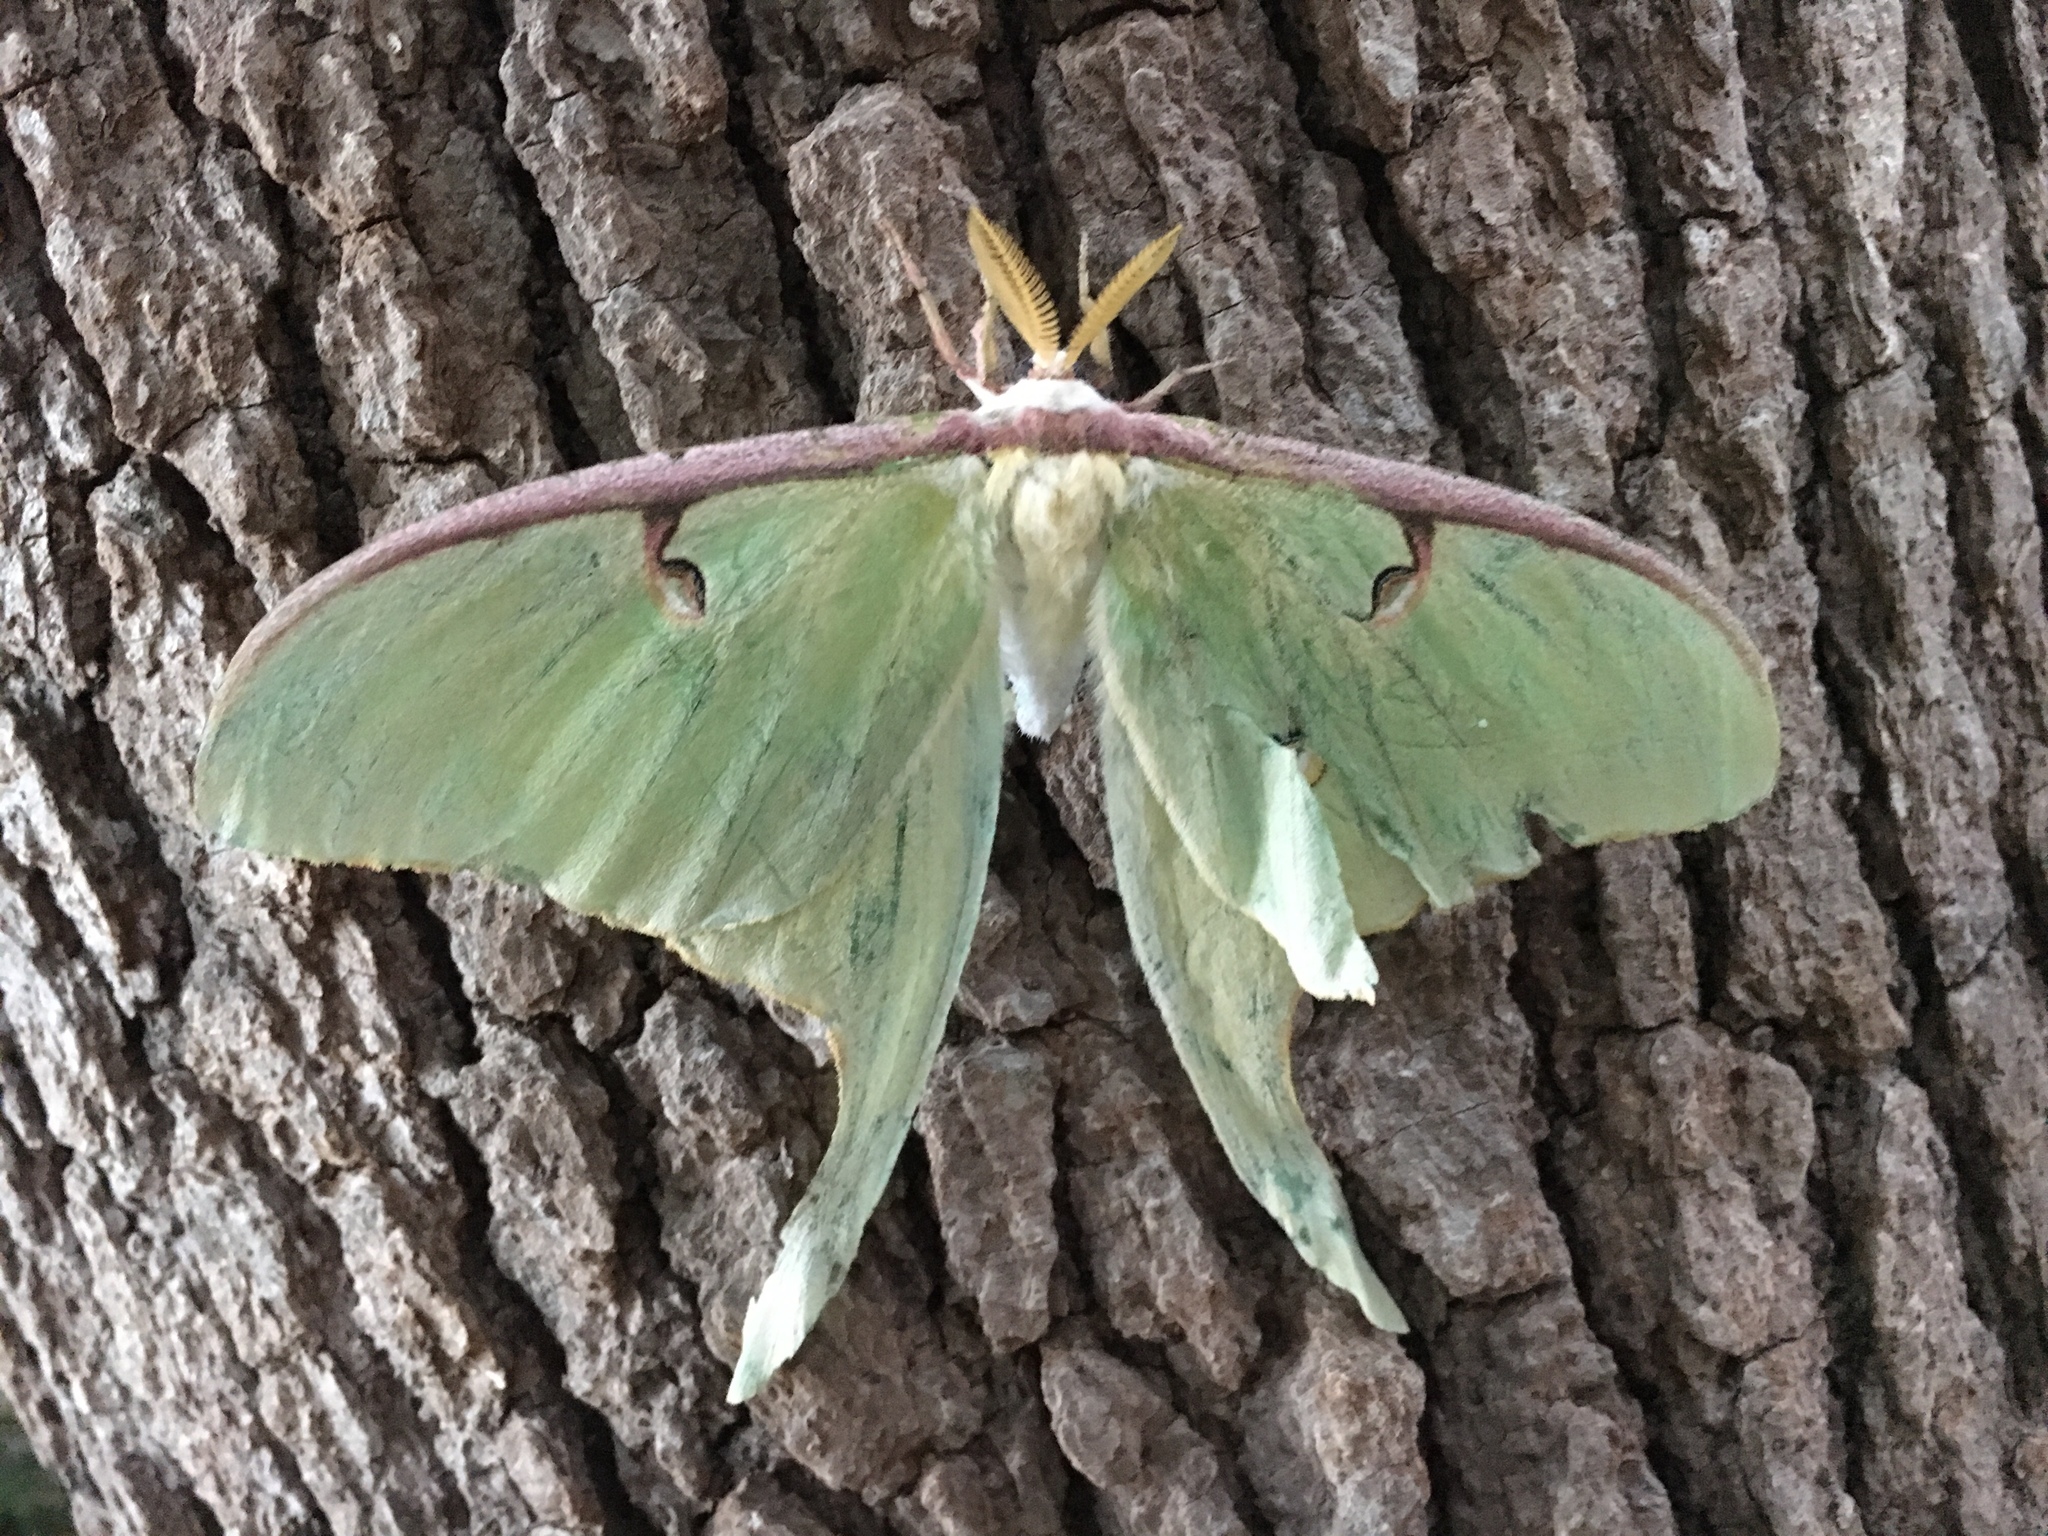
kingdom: Animalia
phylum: Arthropoda
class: Insecta
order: Lepidoptera
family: Saturniidae
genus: Actias
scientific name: Actias luna
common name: Luna moth
